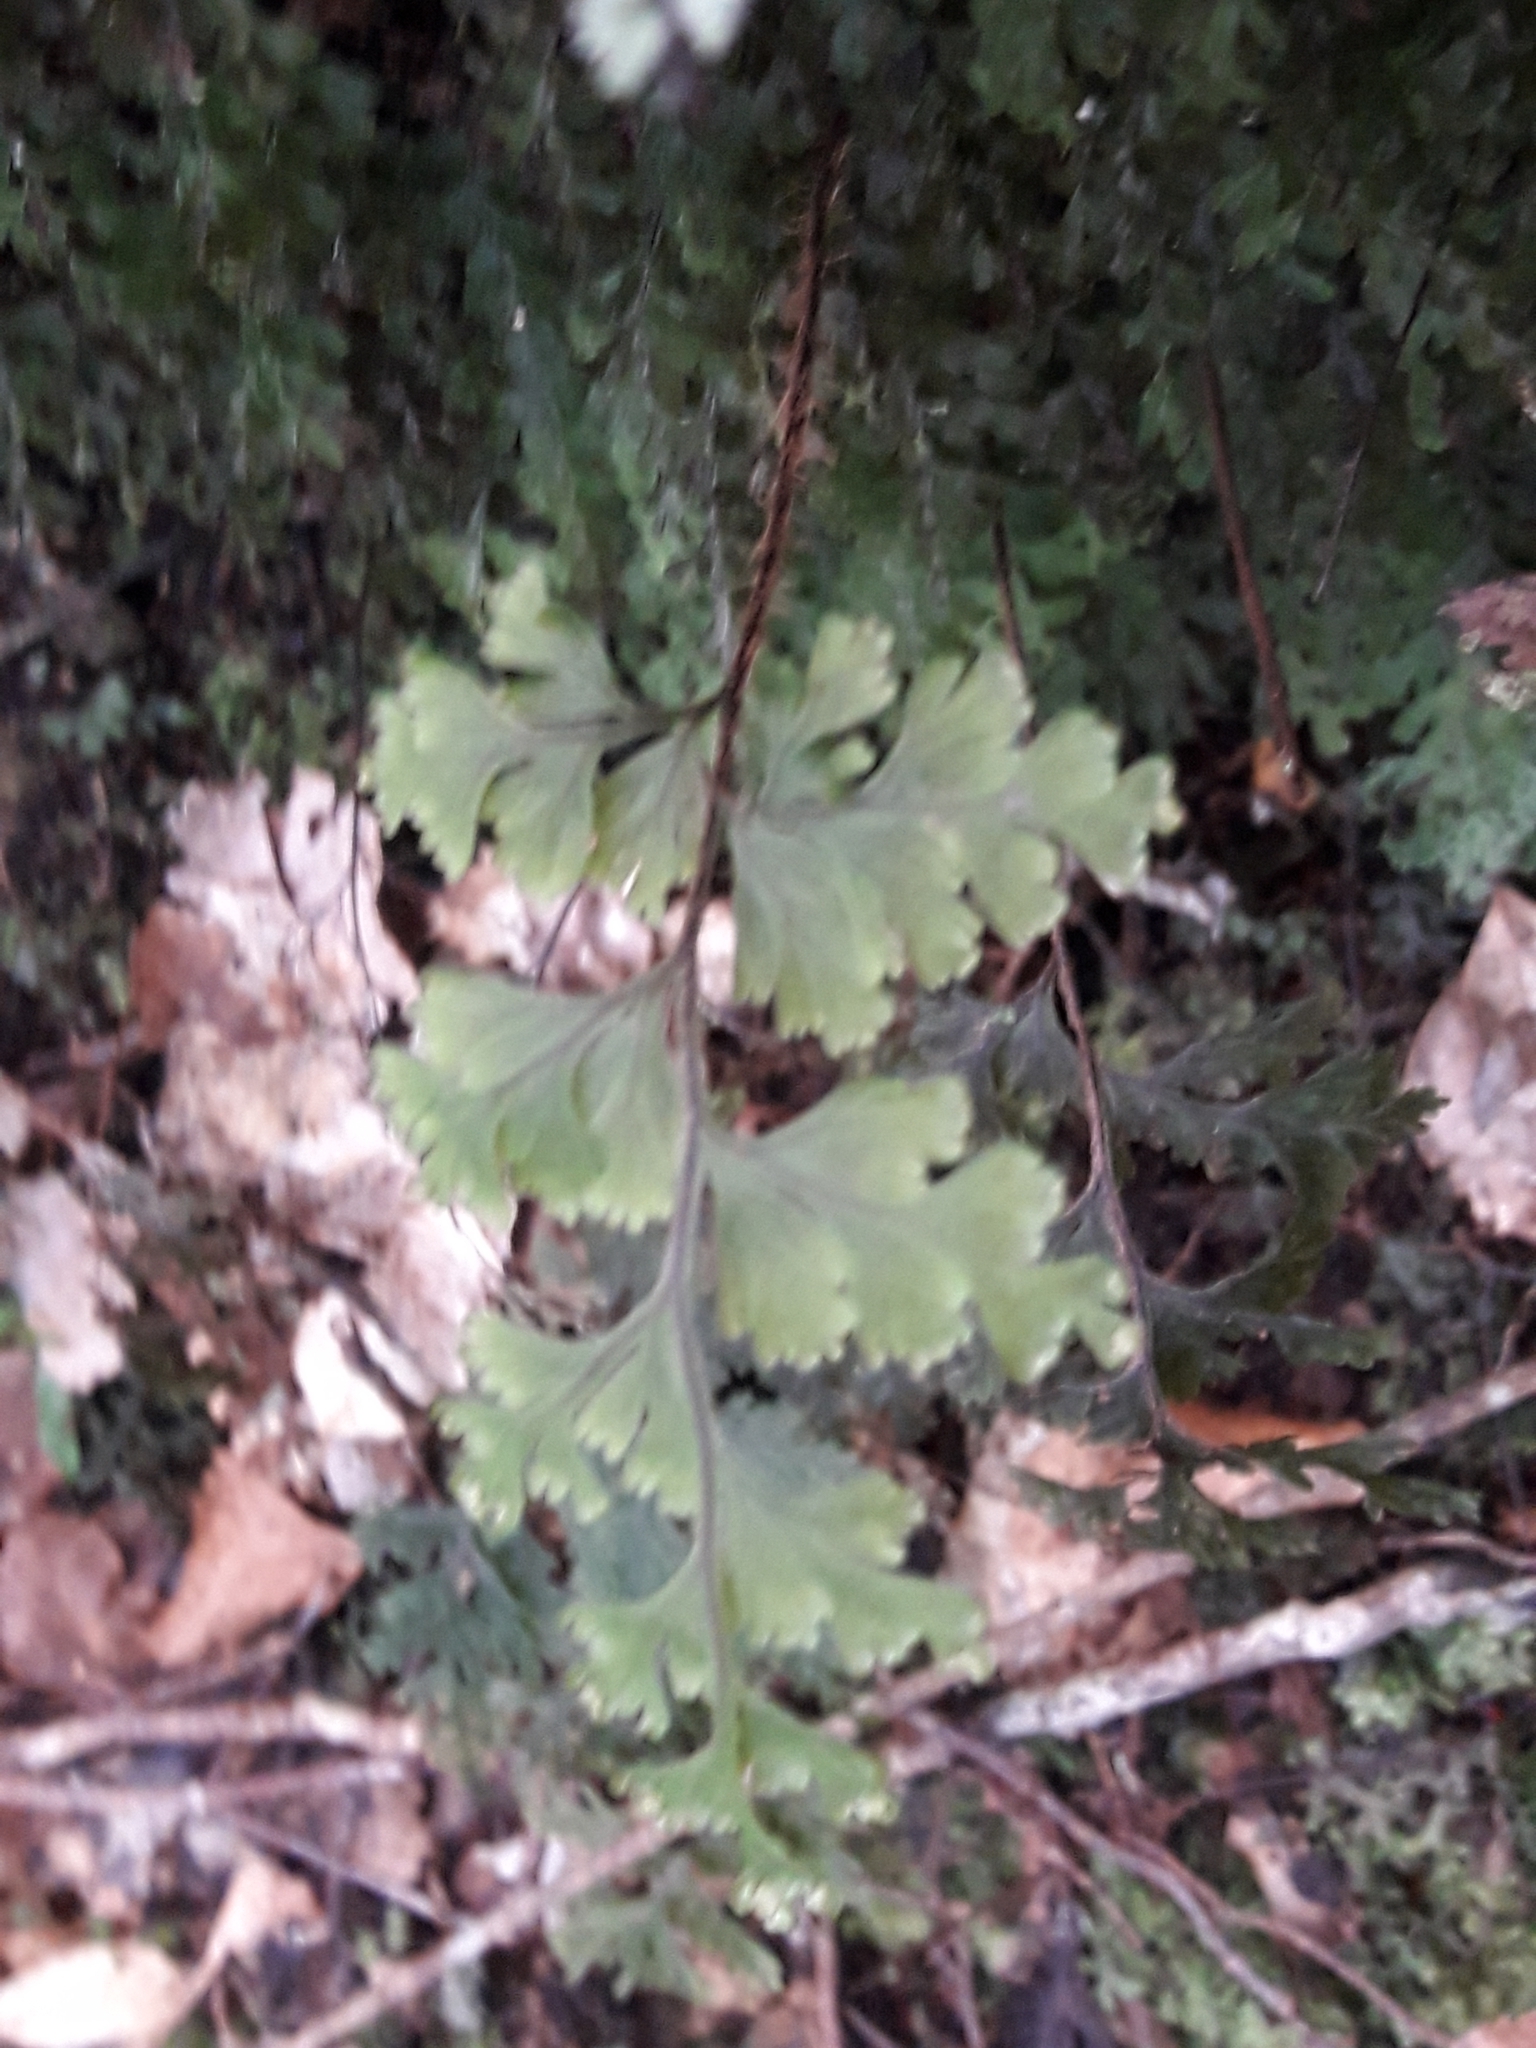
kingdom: Plantae
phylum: Tracheophyta
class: Polypodiopsida
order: Hymenophyllales
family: Hymenophyllaceae
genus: Hymenophyllum
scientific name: Hymenophyllum scabrum
